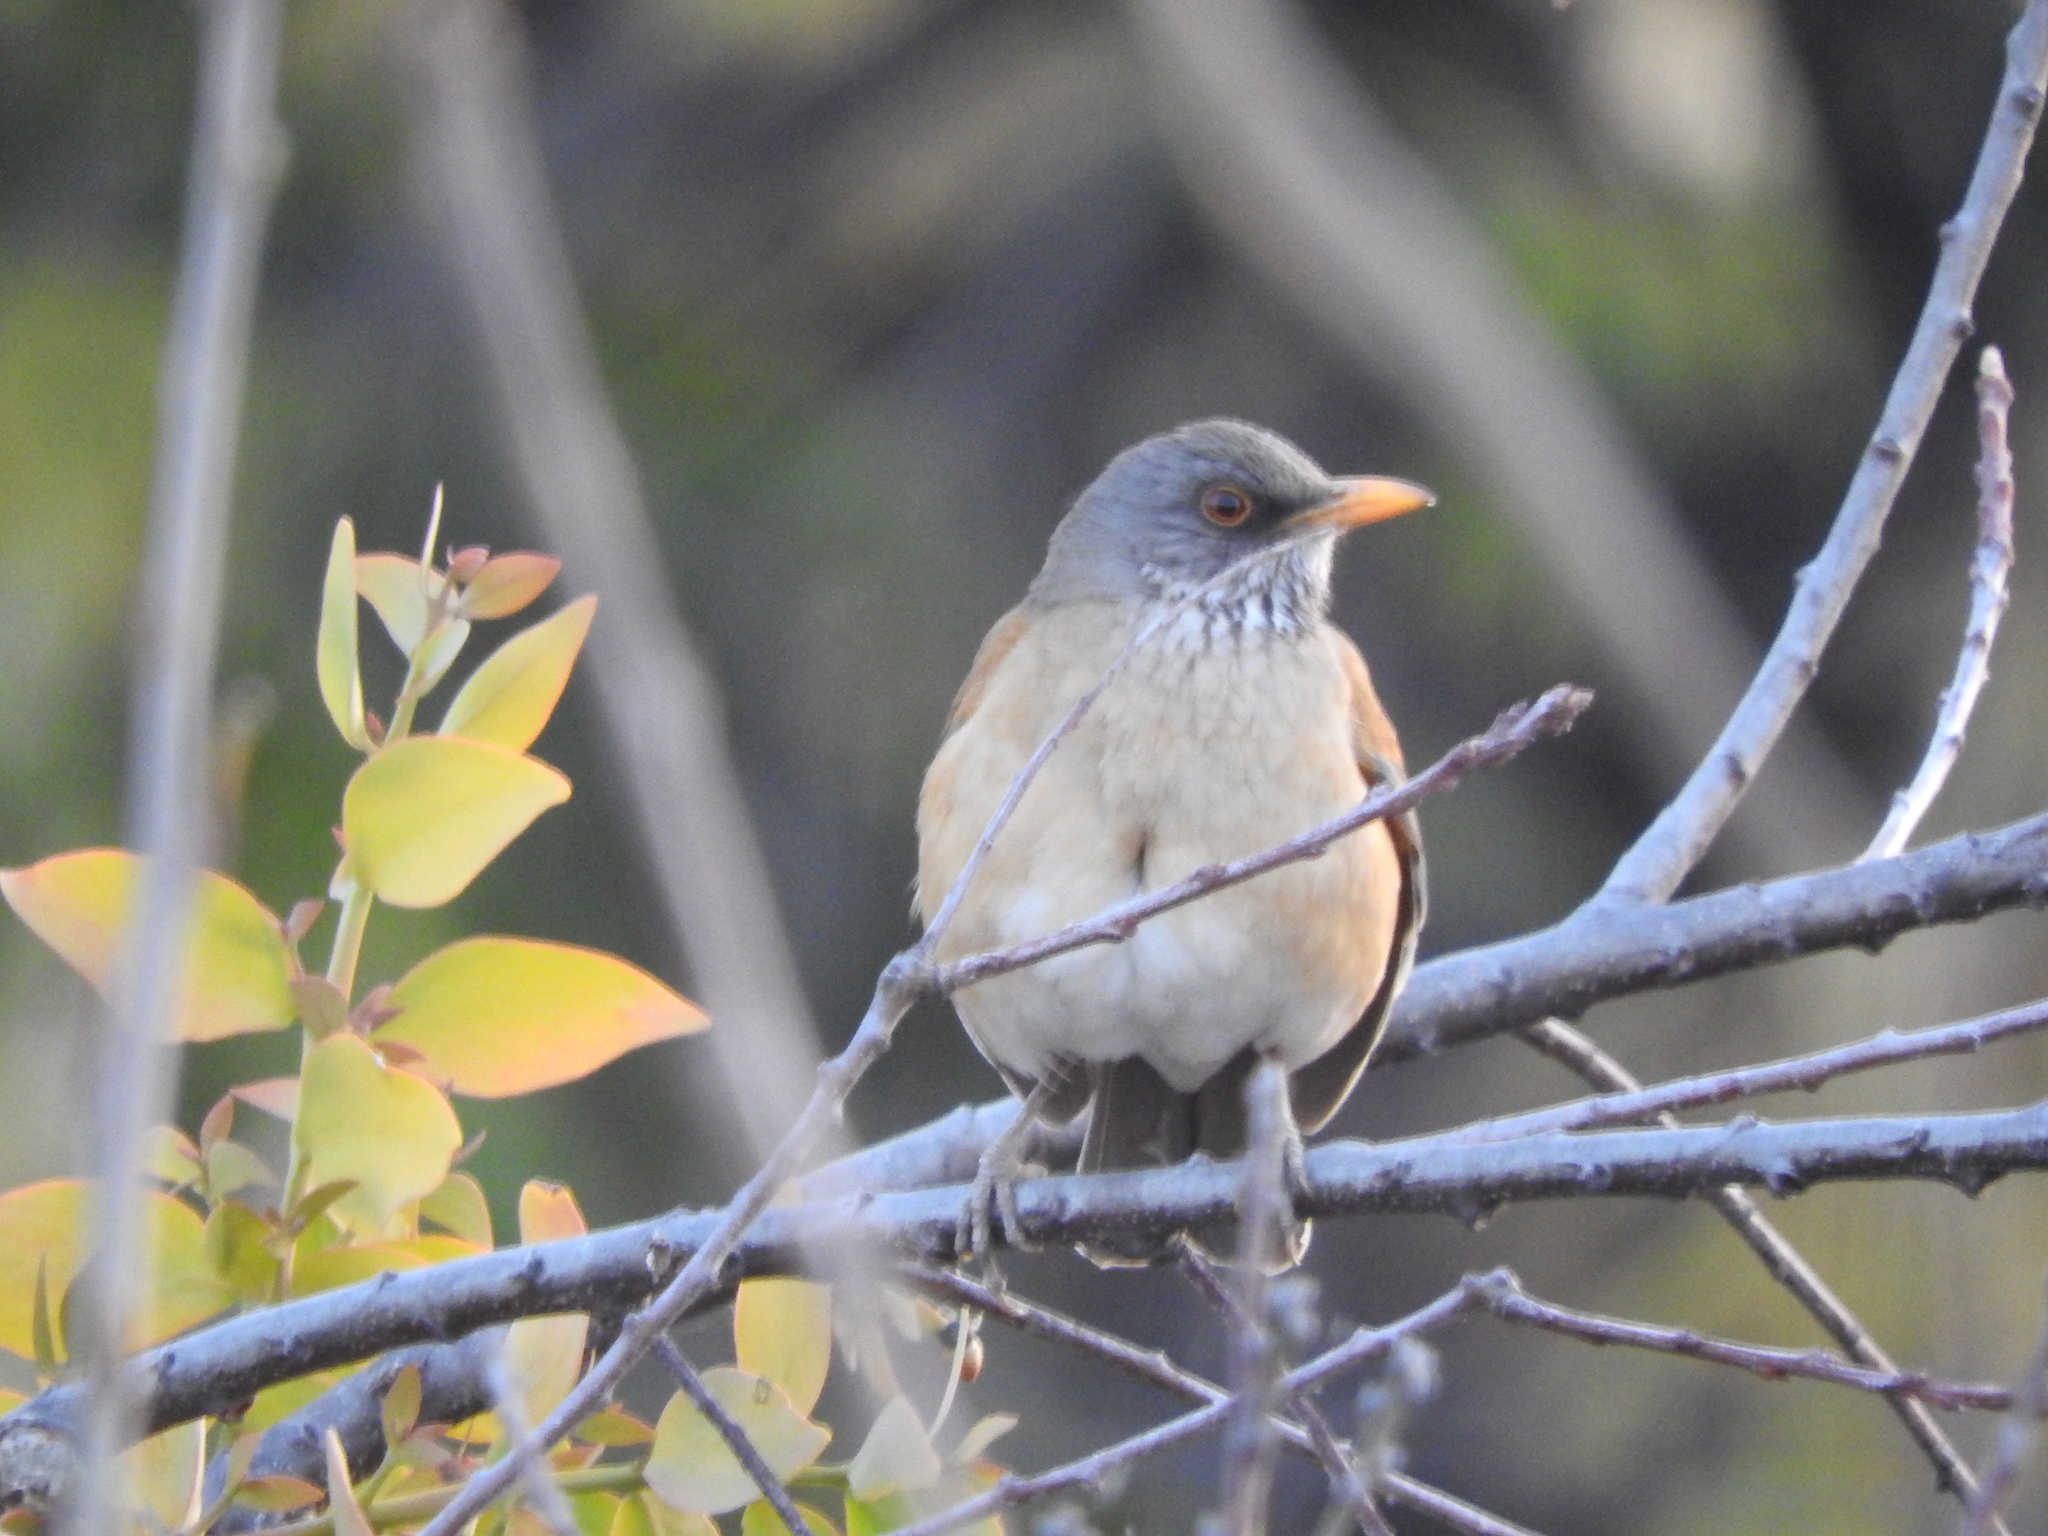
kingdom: Animalia
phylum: Chordata
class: Aves
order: Passeriformes
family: Turdidae
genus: Turdus
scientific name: Turdus rufopalliatus
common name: Rufous-backed robin
